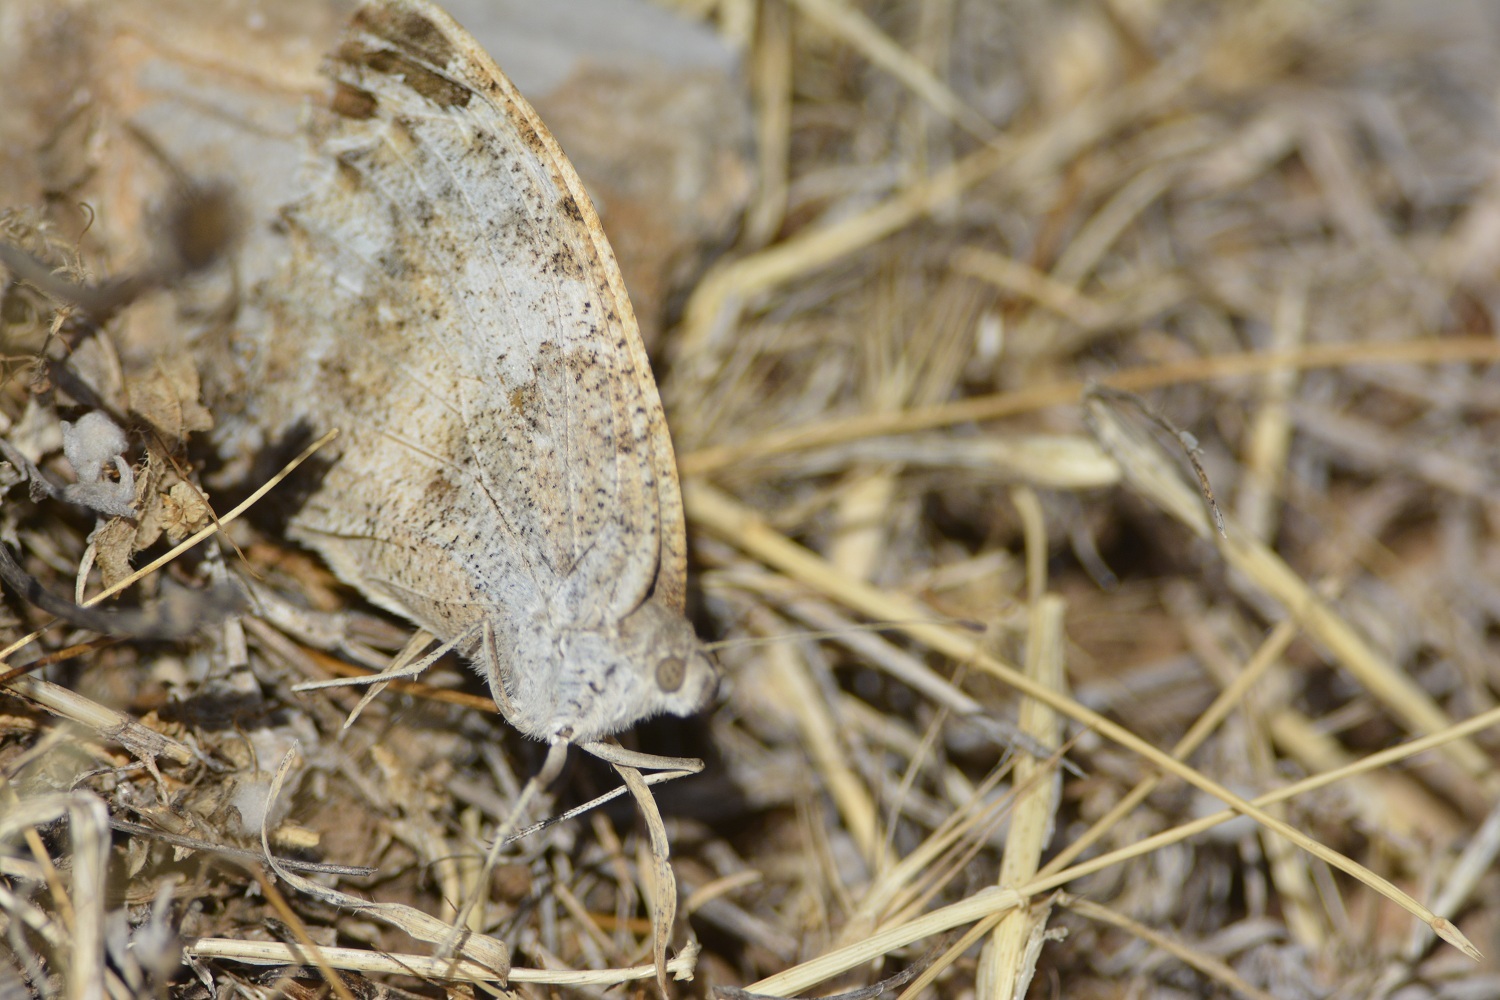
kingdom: Animalia
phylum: Arthropoda
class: Insecta
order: Lepidoptera
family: Nymphalidae
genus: Satyrus
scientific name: Satyrus briseis
